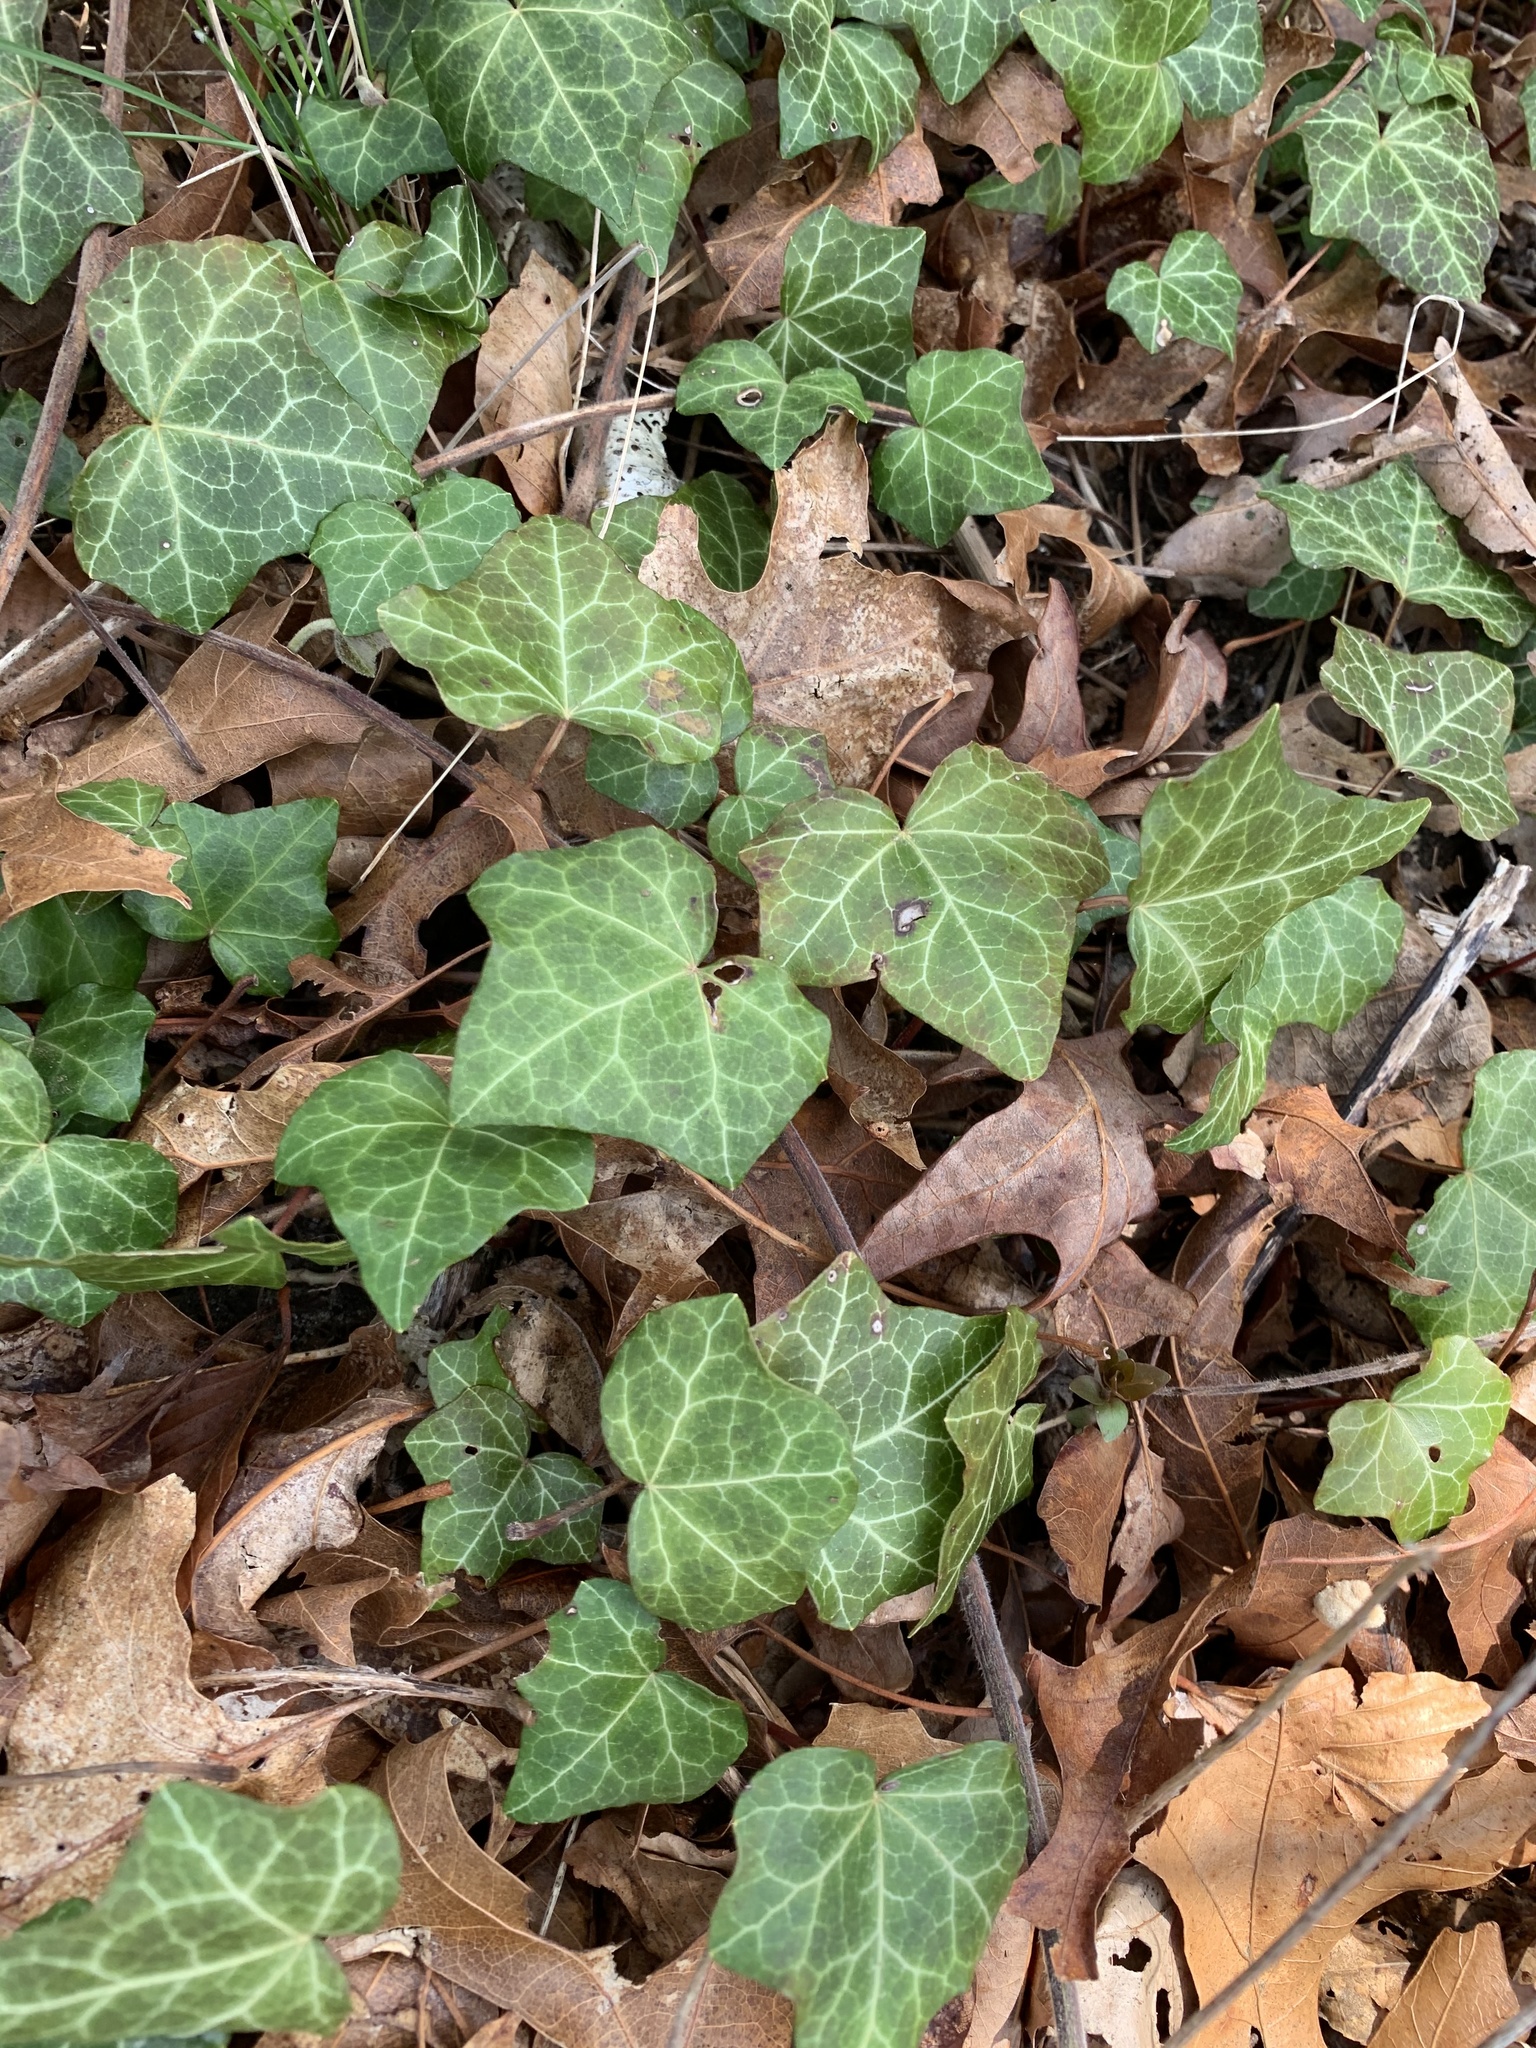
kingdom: Plantae
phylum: Tracheophyta
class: Magnoliopsida
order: Apiales
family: Araliaceae
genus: Hedera
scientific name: Hedera helix
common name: Ivy
